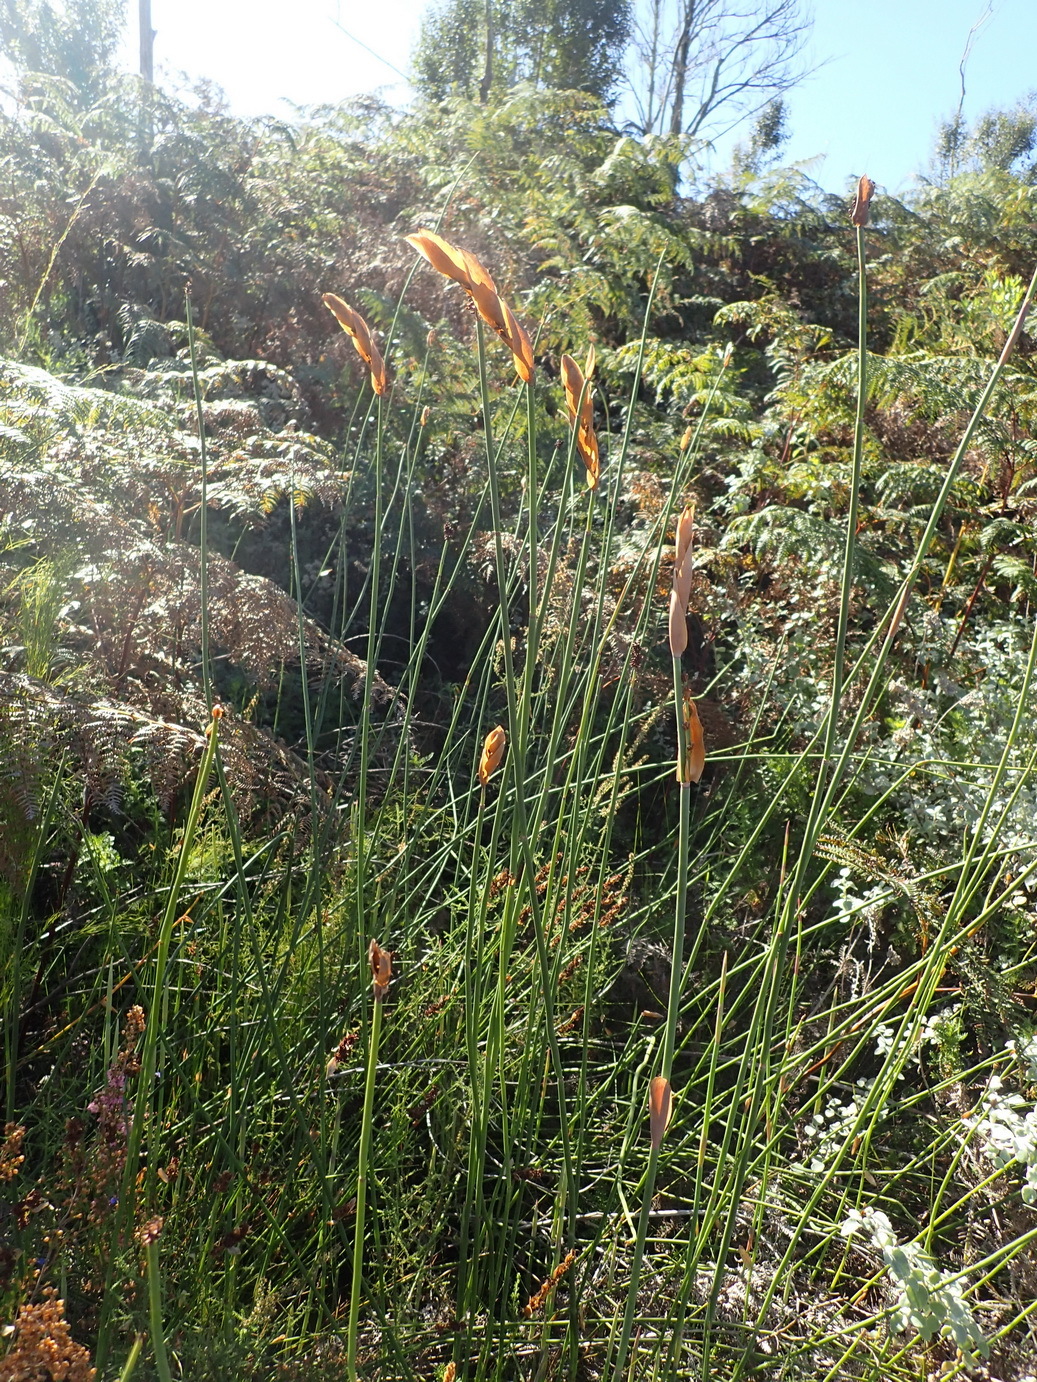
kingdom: Plantae
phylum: Tracheophyta
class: Liliopsida
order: Poales
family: Restionaceae
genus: Elegia
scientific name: Elegia thyrsoidea
